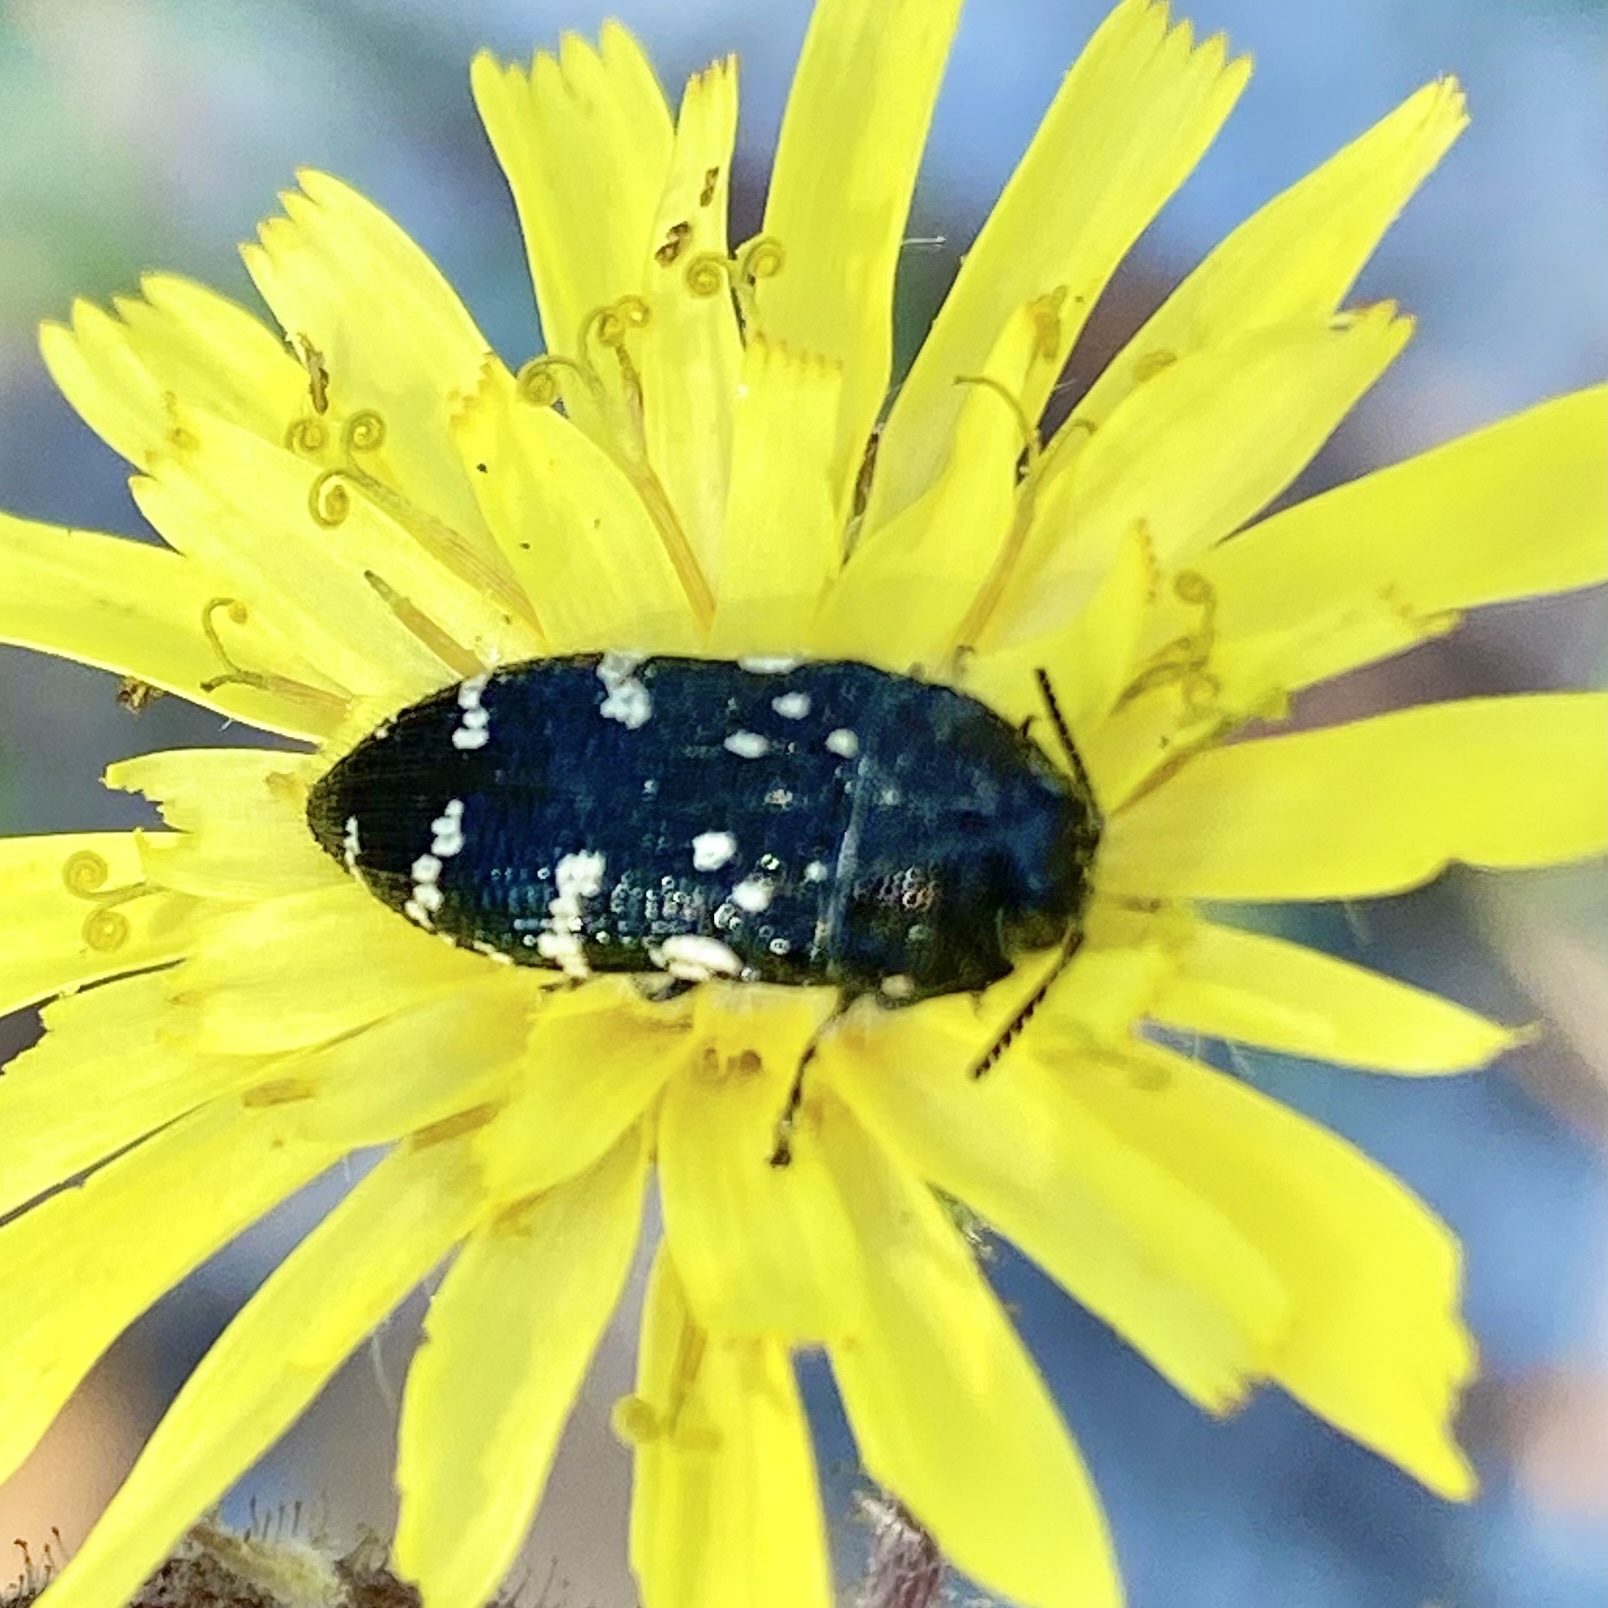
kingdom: Animalia
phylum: Arthropoda
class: Insecta
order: Coleoptera
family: Buprestidae
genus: Acmaeodera
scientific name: Acmaeodera ornata
